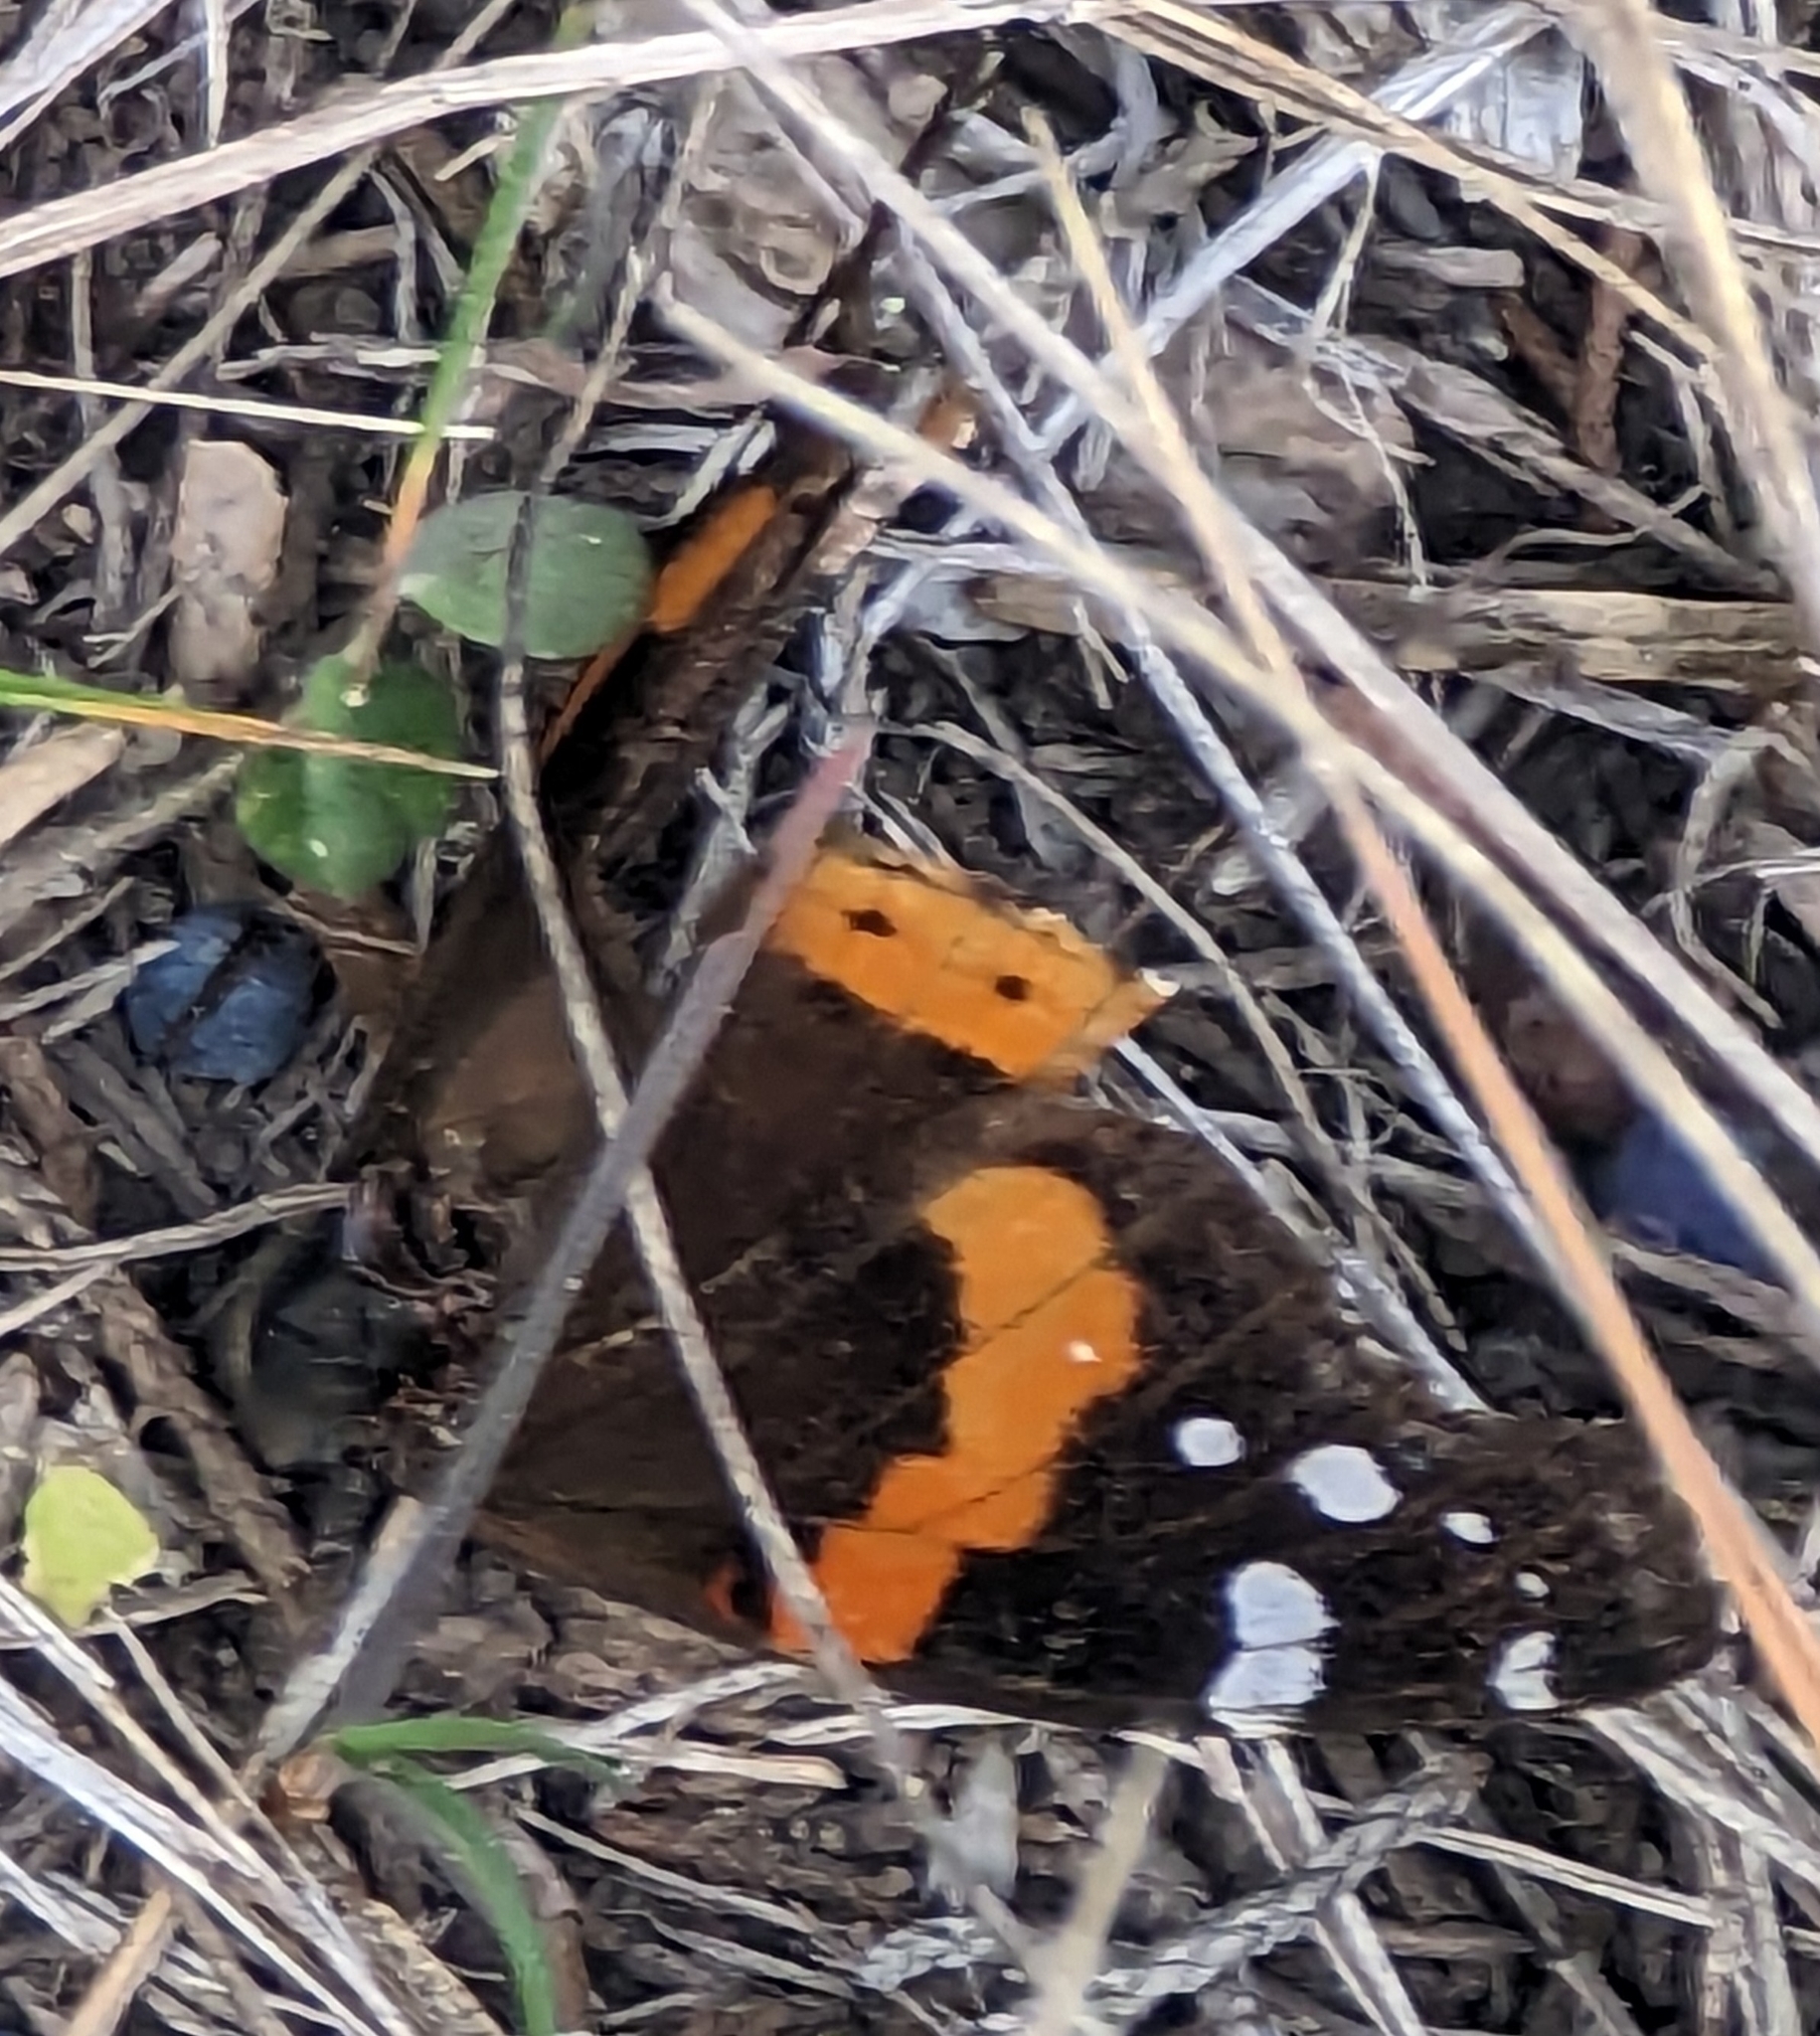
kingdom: Animalia
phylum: Arthropoda
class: Insecta
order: Lepidoptera
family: Nymphalidae
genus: Vanessa
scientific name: Vanessa atalanta
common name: Red admiral
